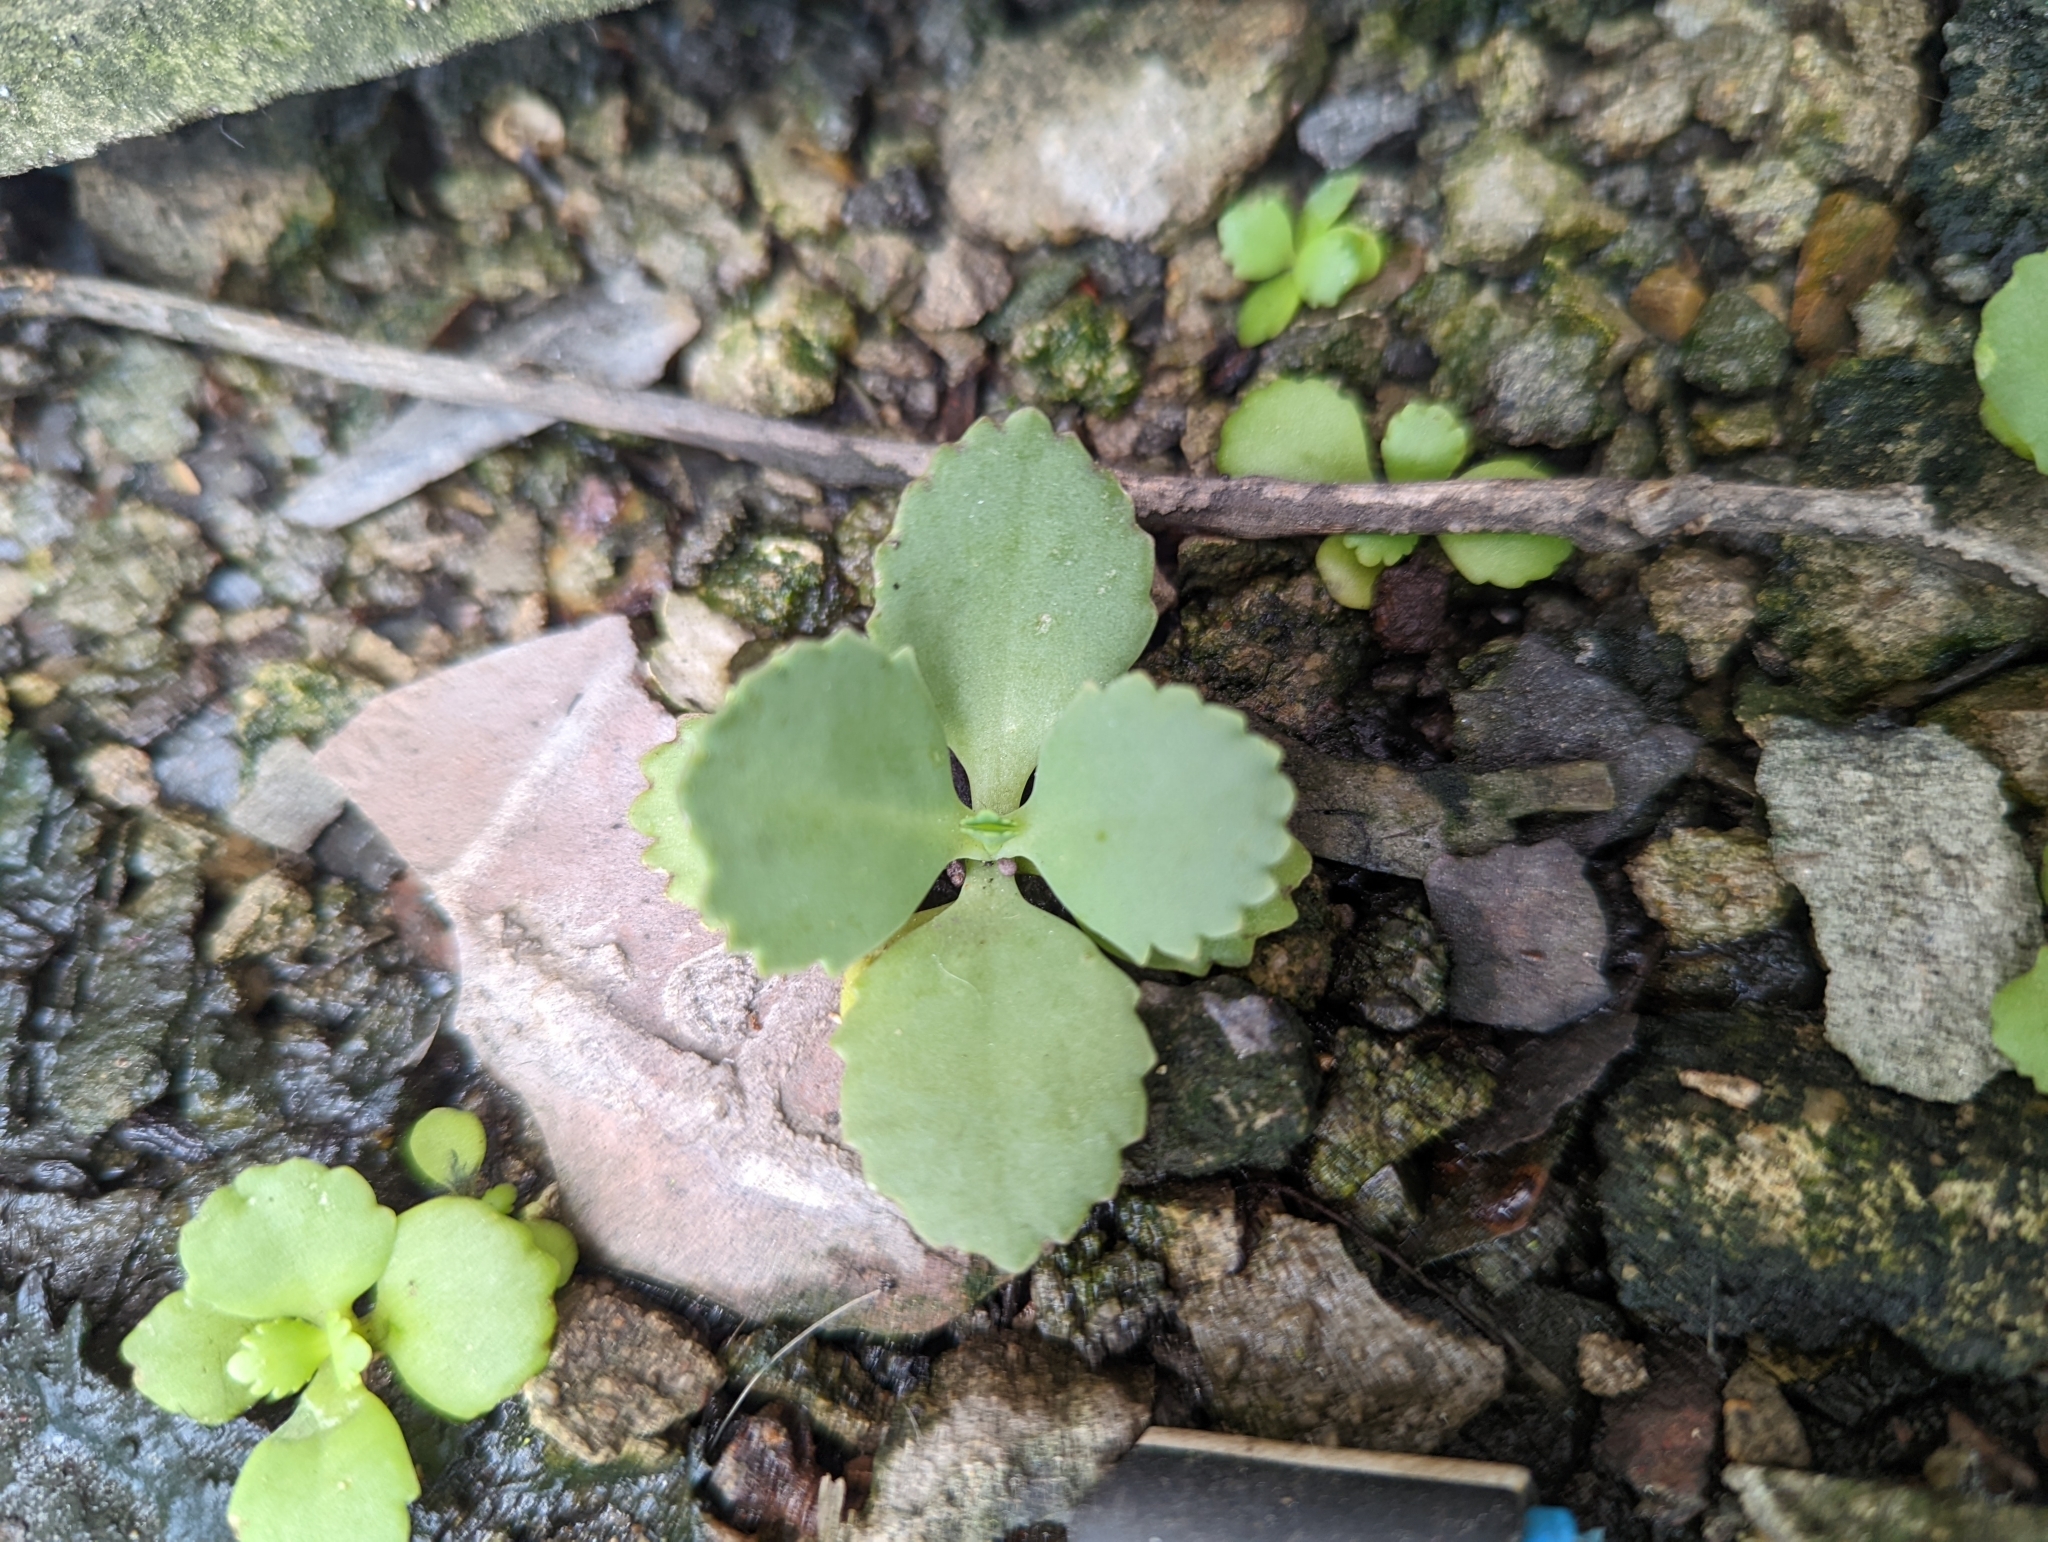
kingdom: Plantae
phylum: Tracheophyta
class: Magnoliopsida
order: Saxifragales
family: Crassulaceae
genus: Kalanchoe
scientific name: Kalanchoe laetivirens
